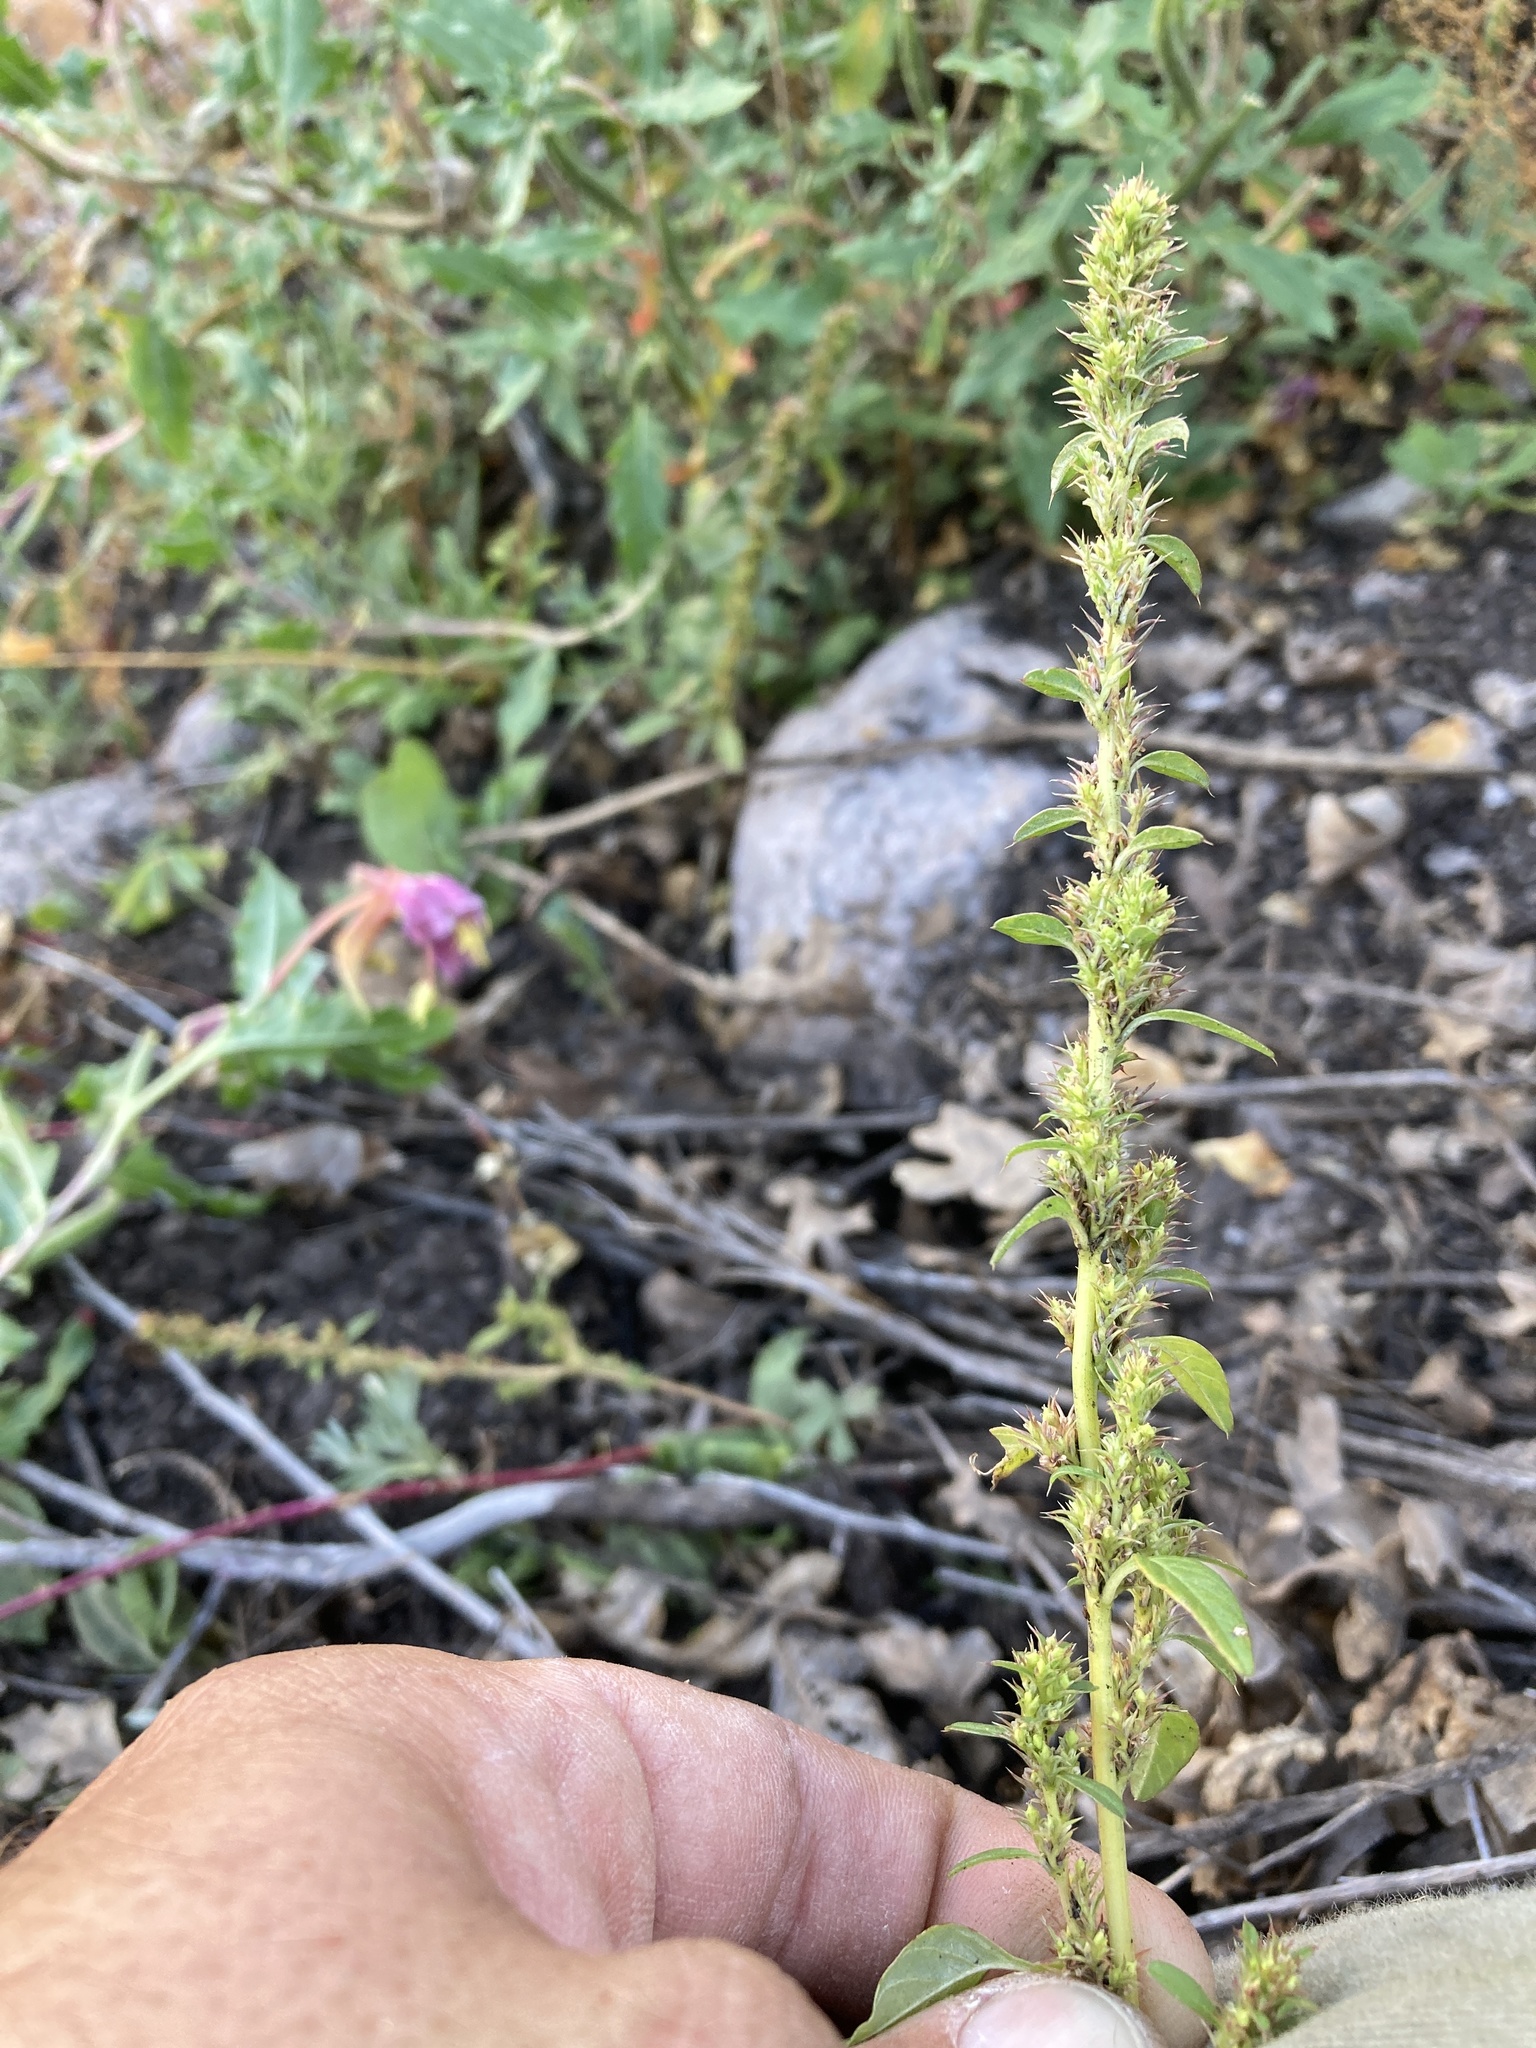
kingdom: Plantae
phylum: Tracheophyta
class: Magnoliopsida
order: Caryophyllales
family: Amaranthaceae
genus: Amaranthus
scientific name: Amaranthus torreyi
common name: Bigelow's amaranth
